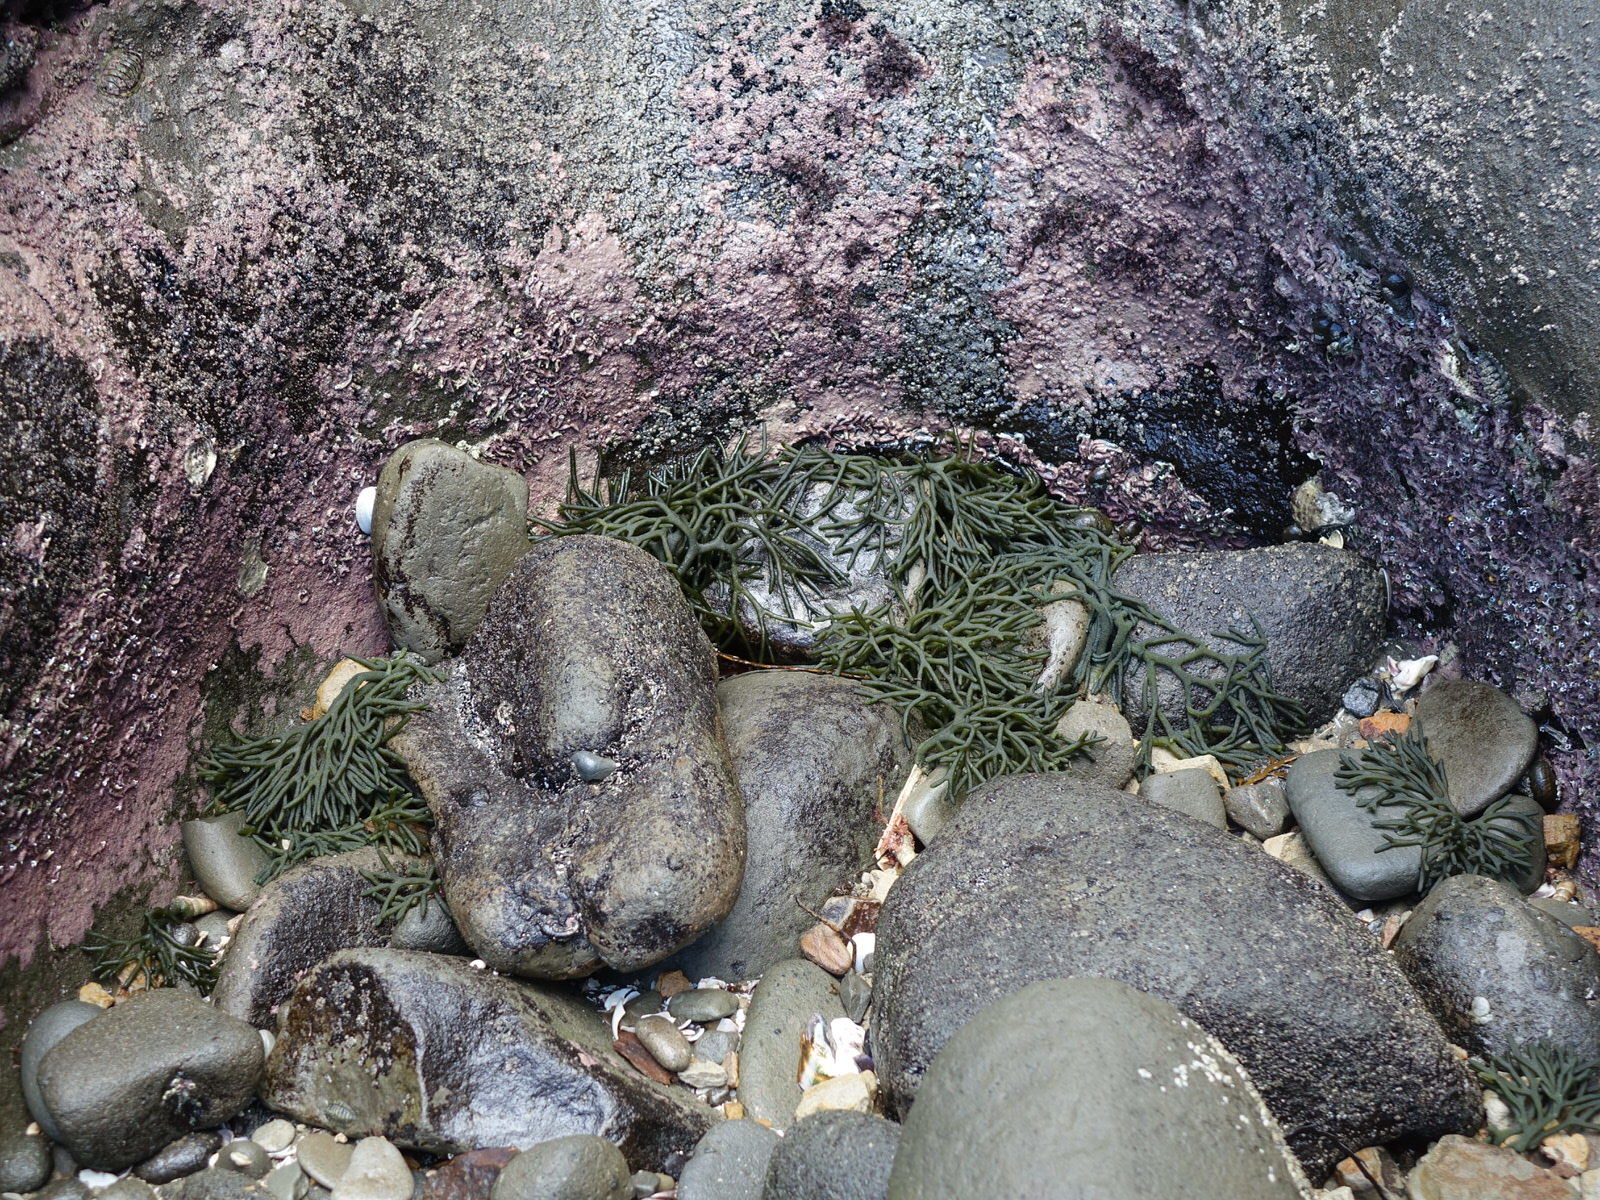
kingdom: Plantae
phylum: Chlorophyta
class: Ulvophyceae
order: Bryopsidales
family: Codiaceae
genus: Codium
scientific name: Codium fragile
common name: Dead man's fingers
